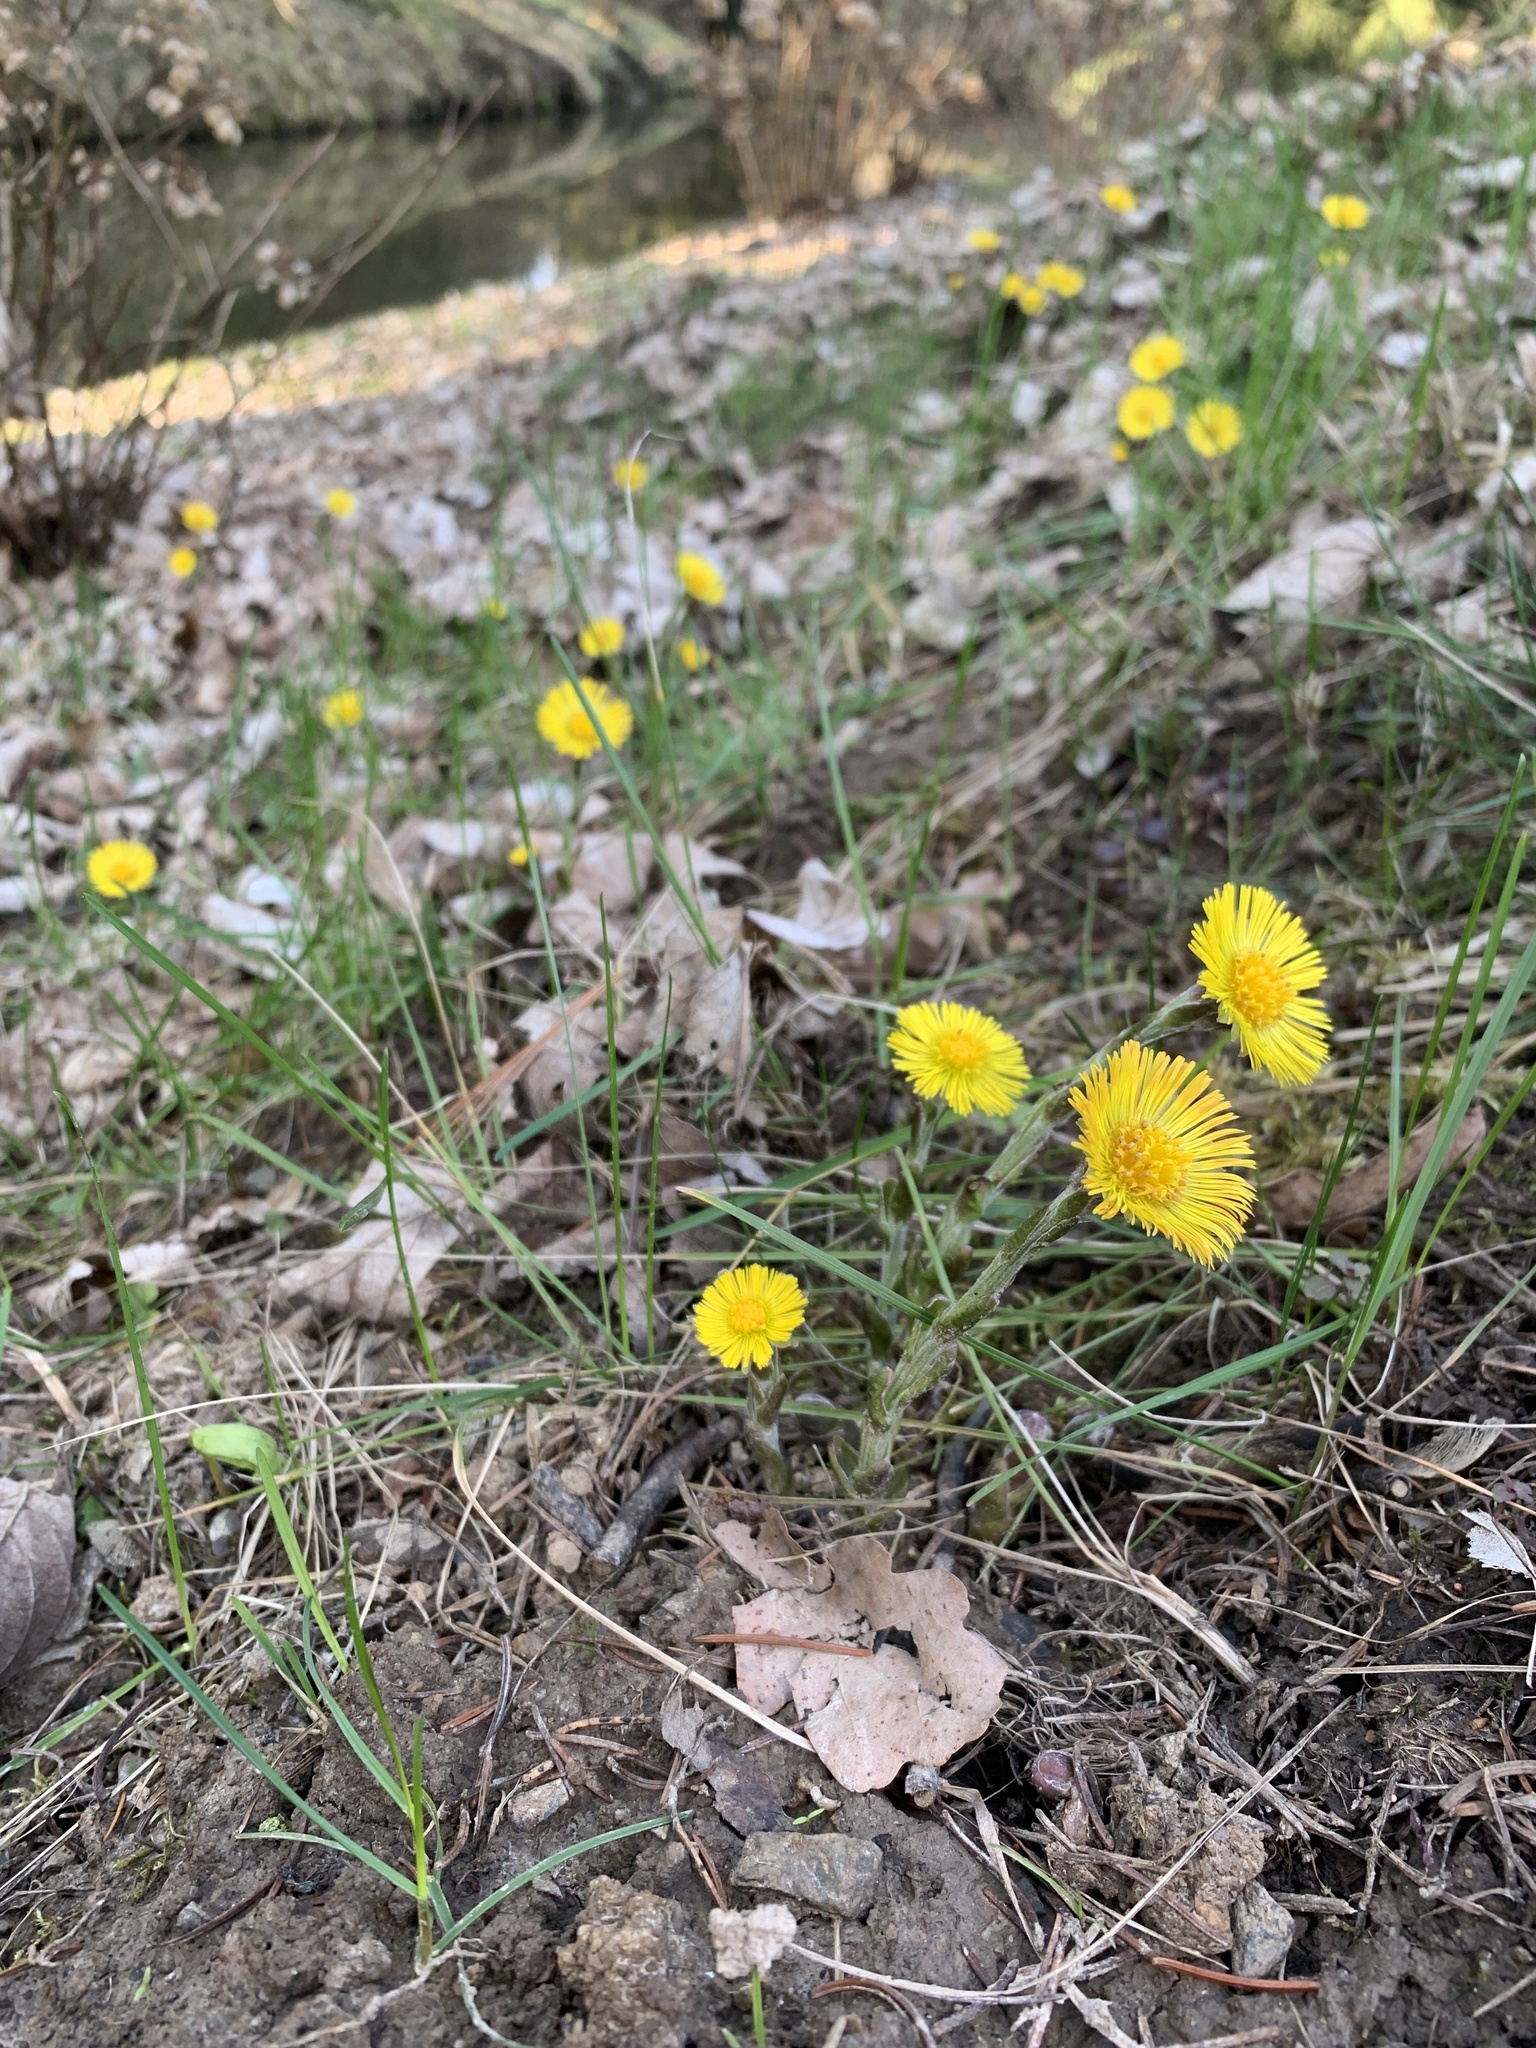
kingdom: Plantae
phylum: Tracheophyta
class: Magnoliopsida
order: Asterales
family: Asteraceae
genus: Tussilago
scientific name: Tussilago farfara
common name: Coltsfoot
